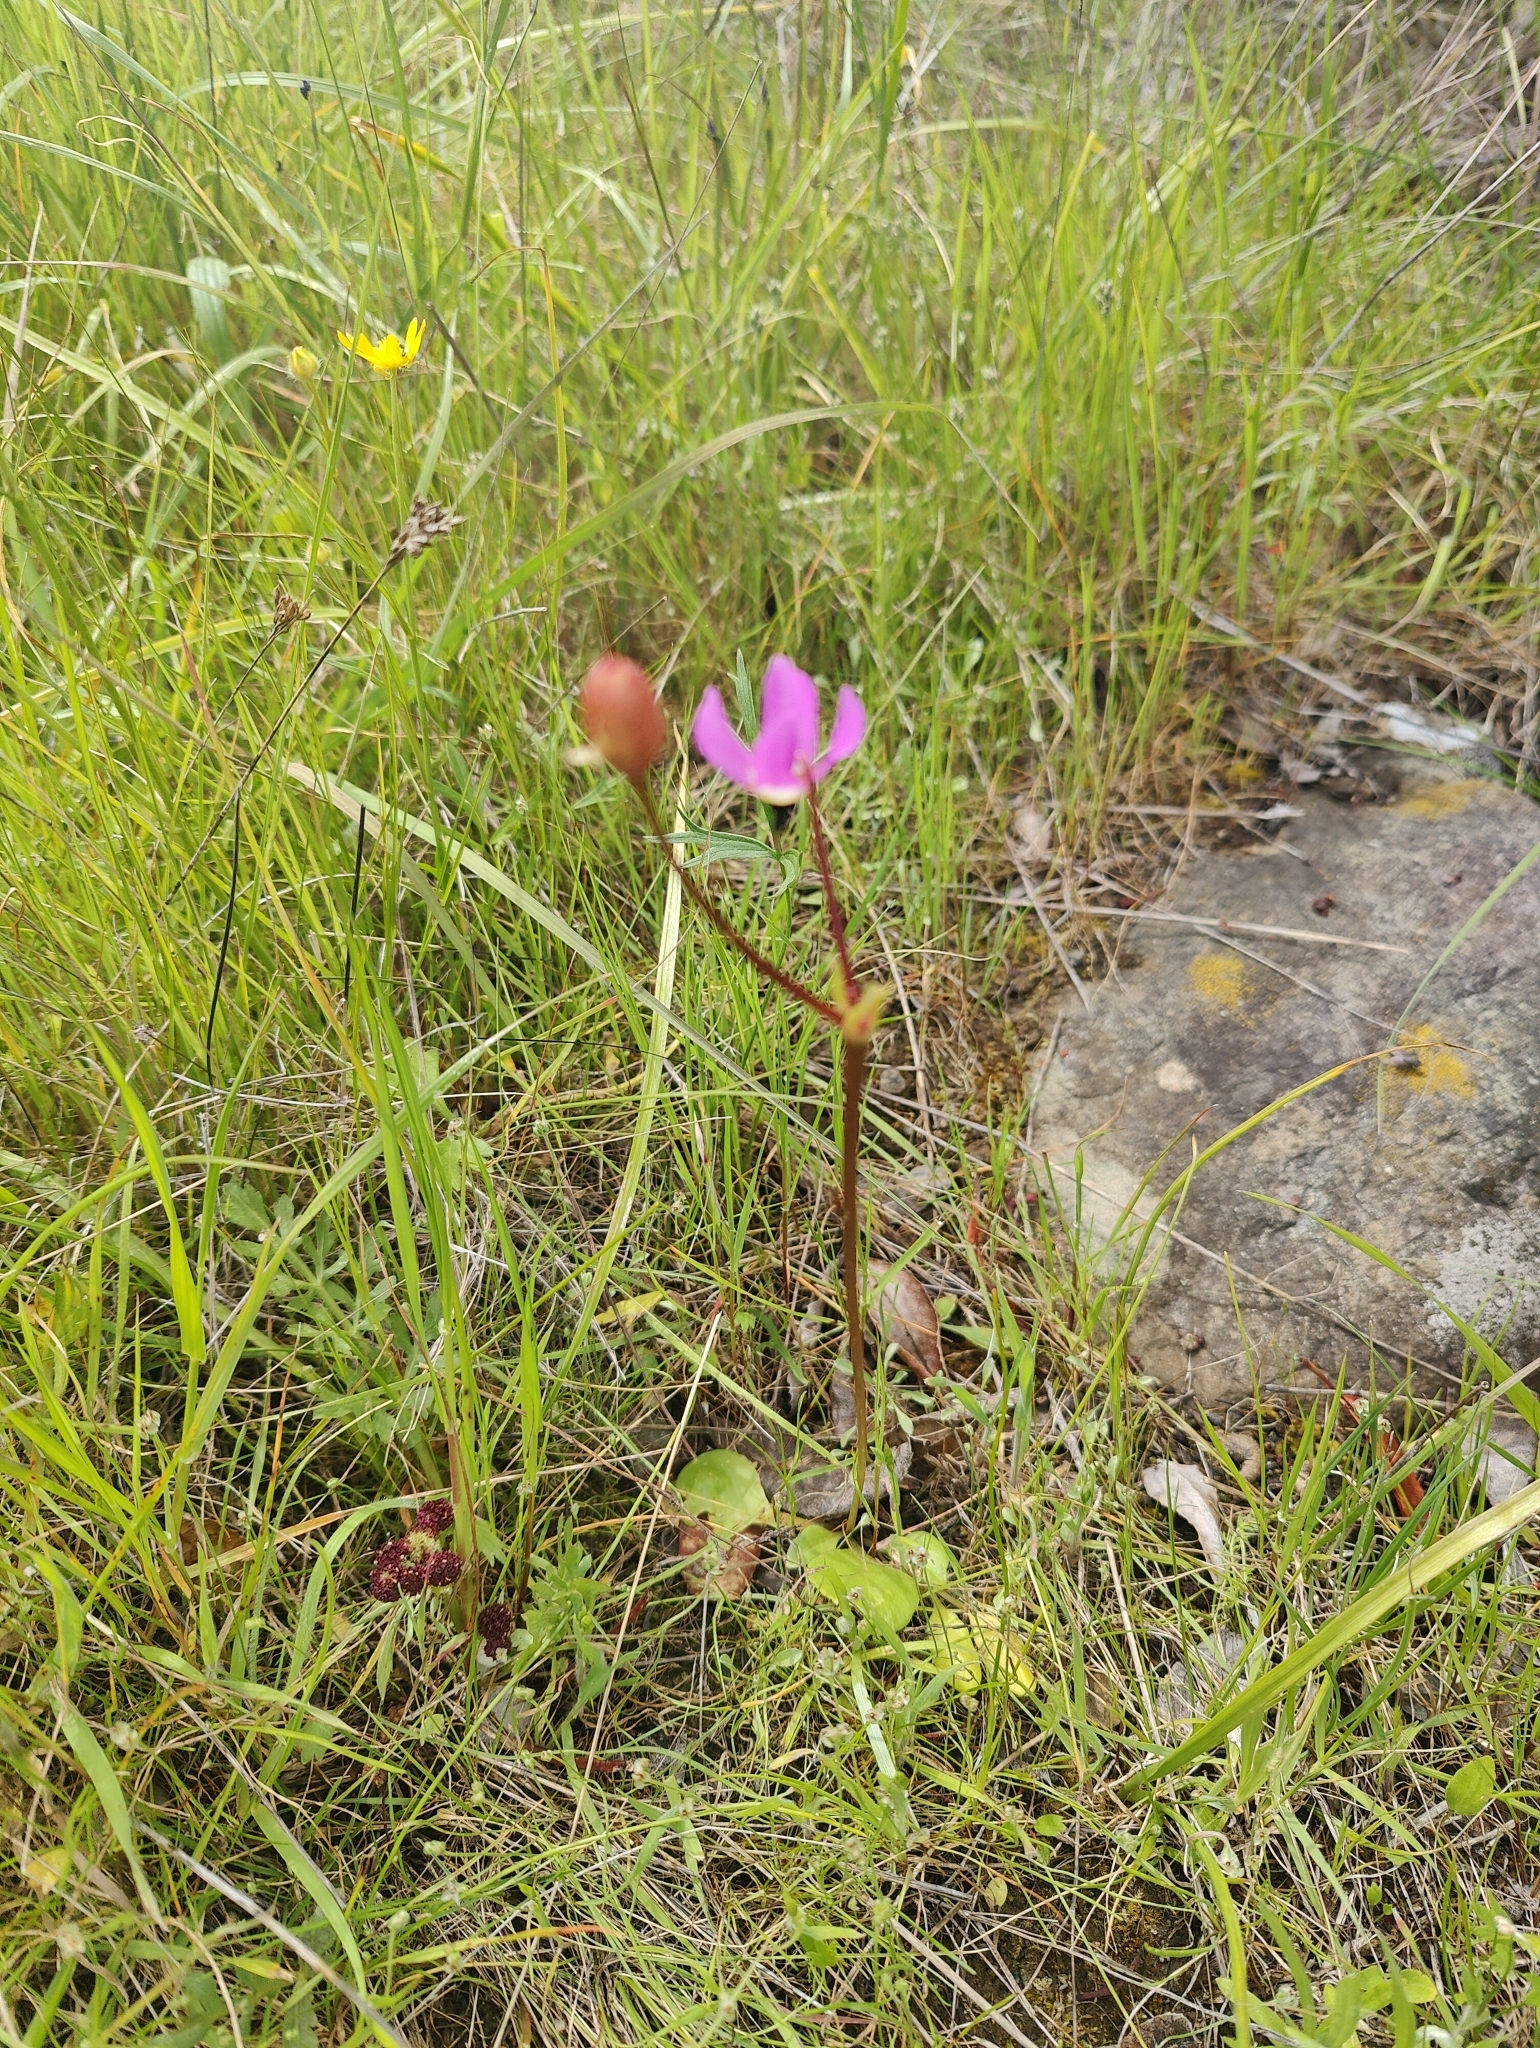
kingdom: Plantae
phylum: Tracheophyta
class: Magnoliopsida
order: Ericales
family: Primulaceae
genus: Dodecatheon
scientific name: Dodecatheon hendersonii
